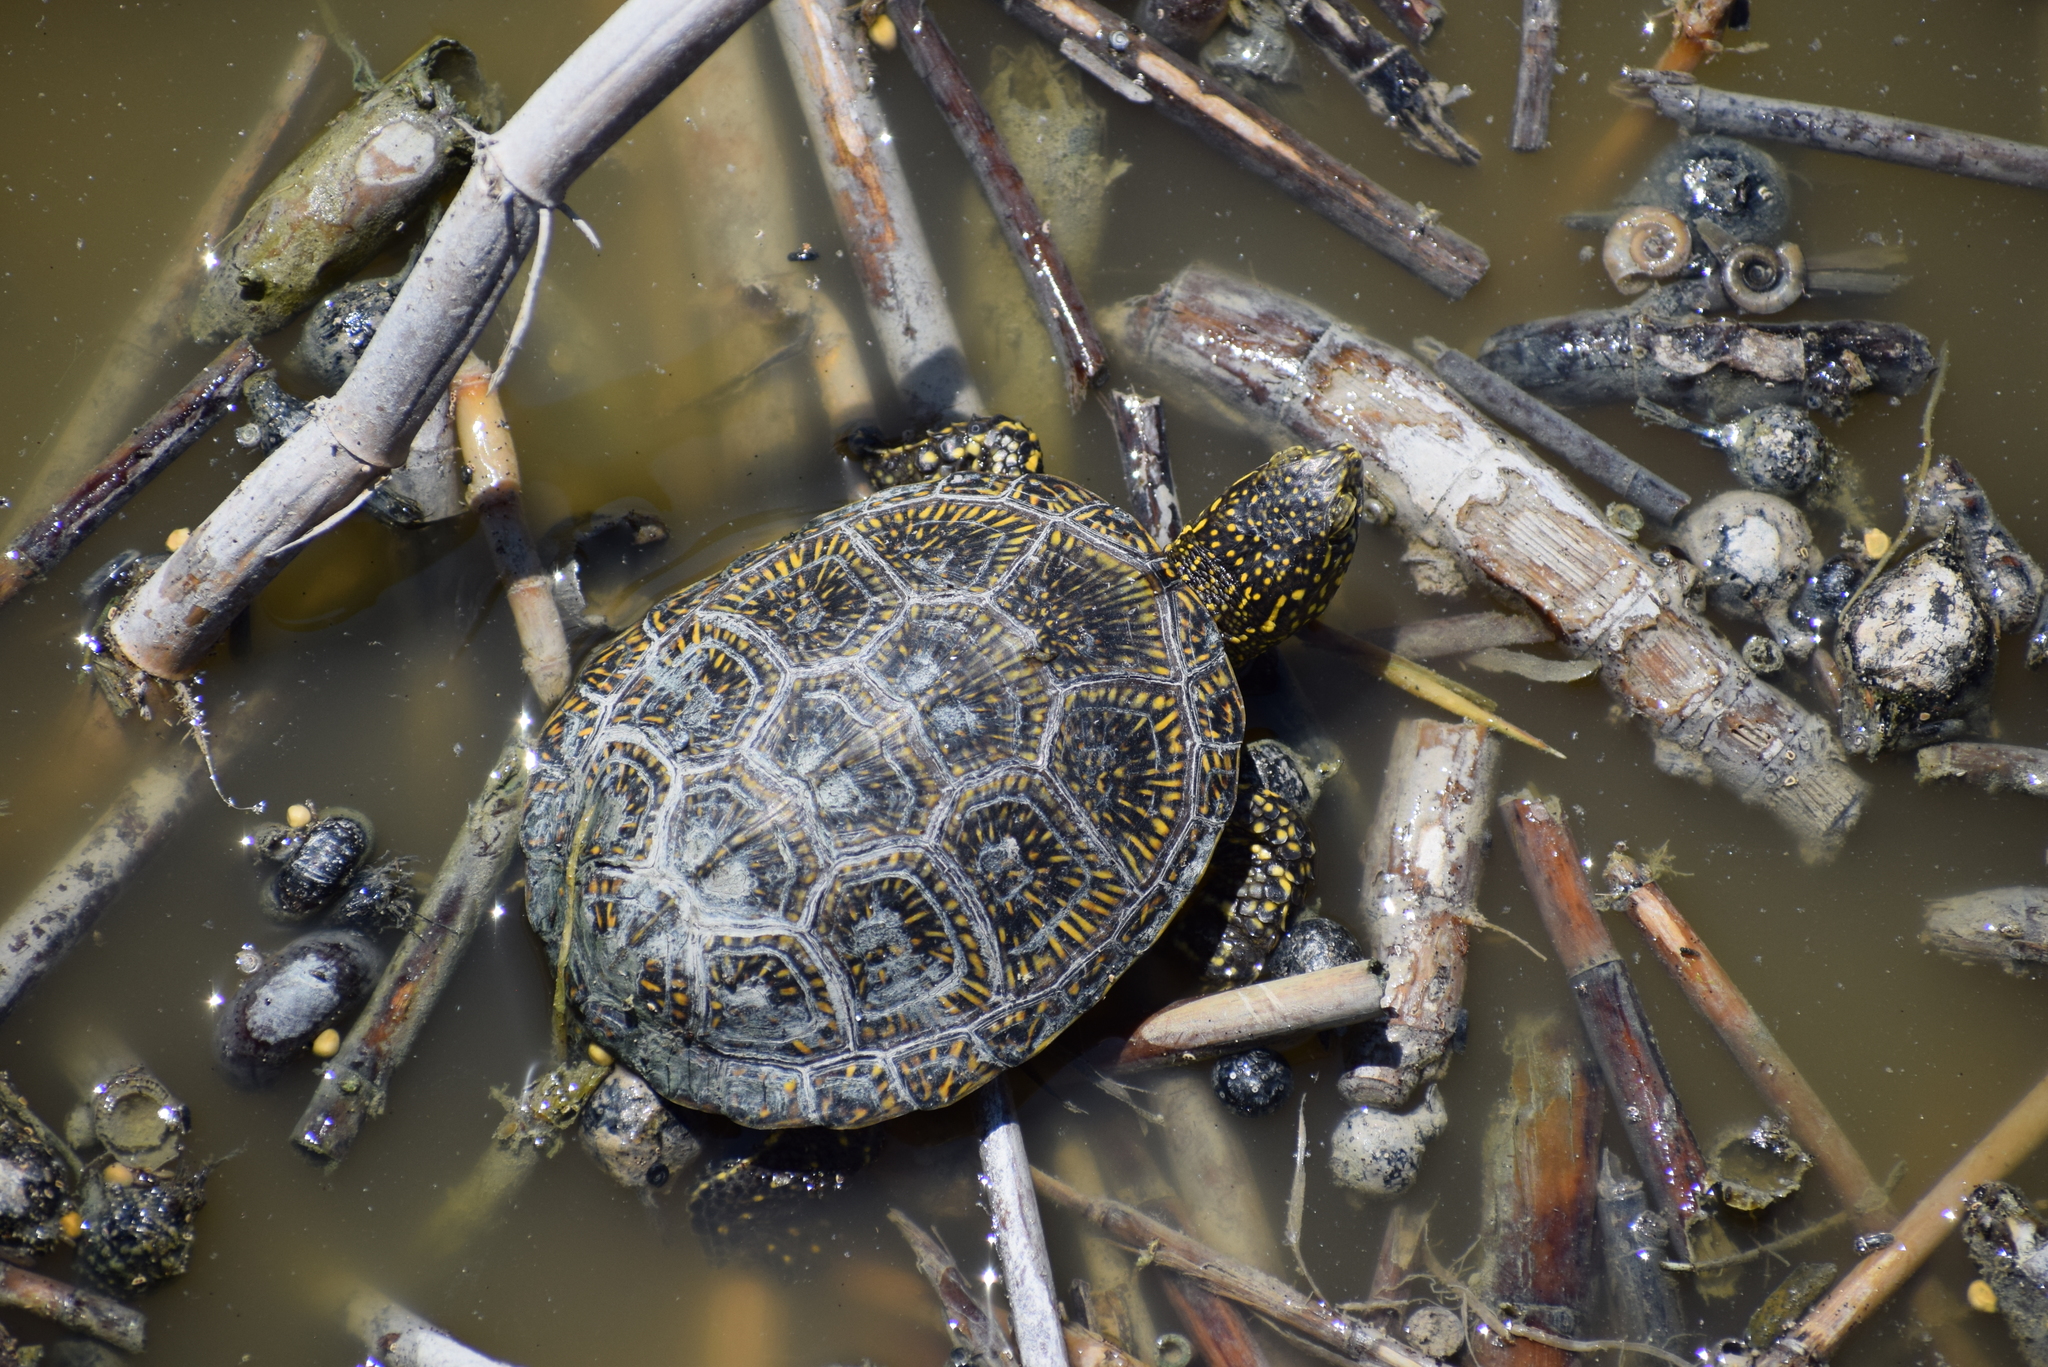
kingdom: Animalia
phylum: Chordata
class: Testudines
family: Emydidae
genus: Emys
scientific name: Emys orbicularis
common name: European pond turtle
